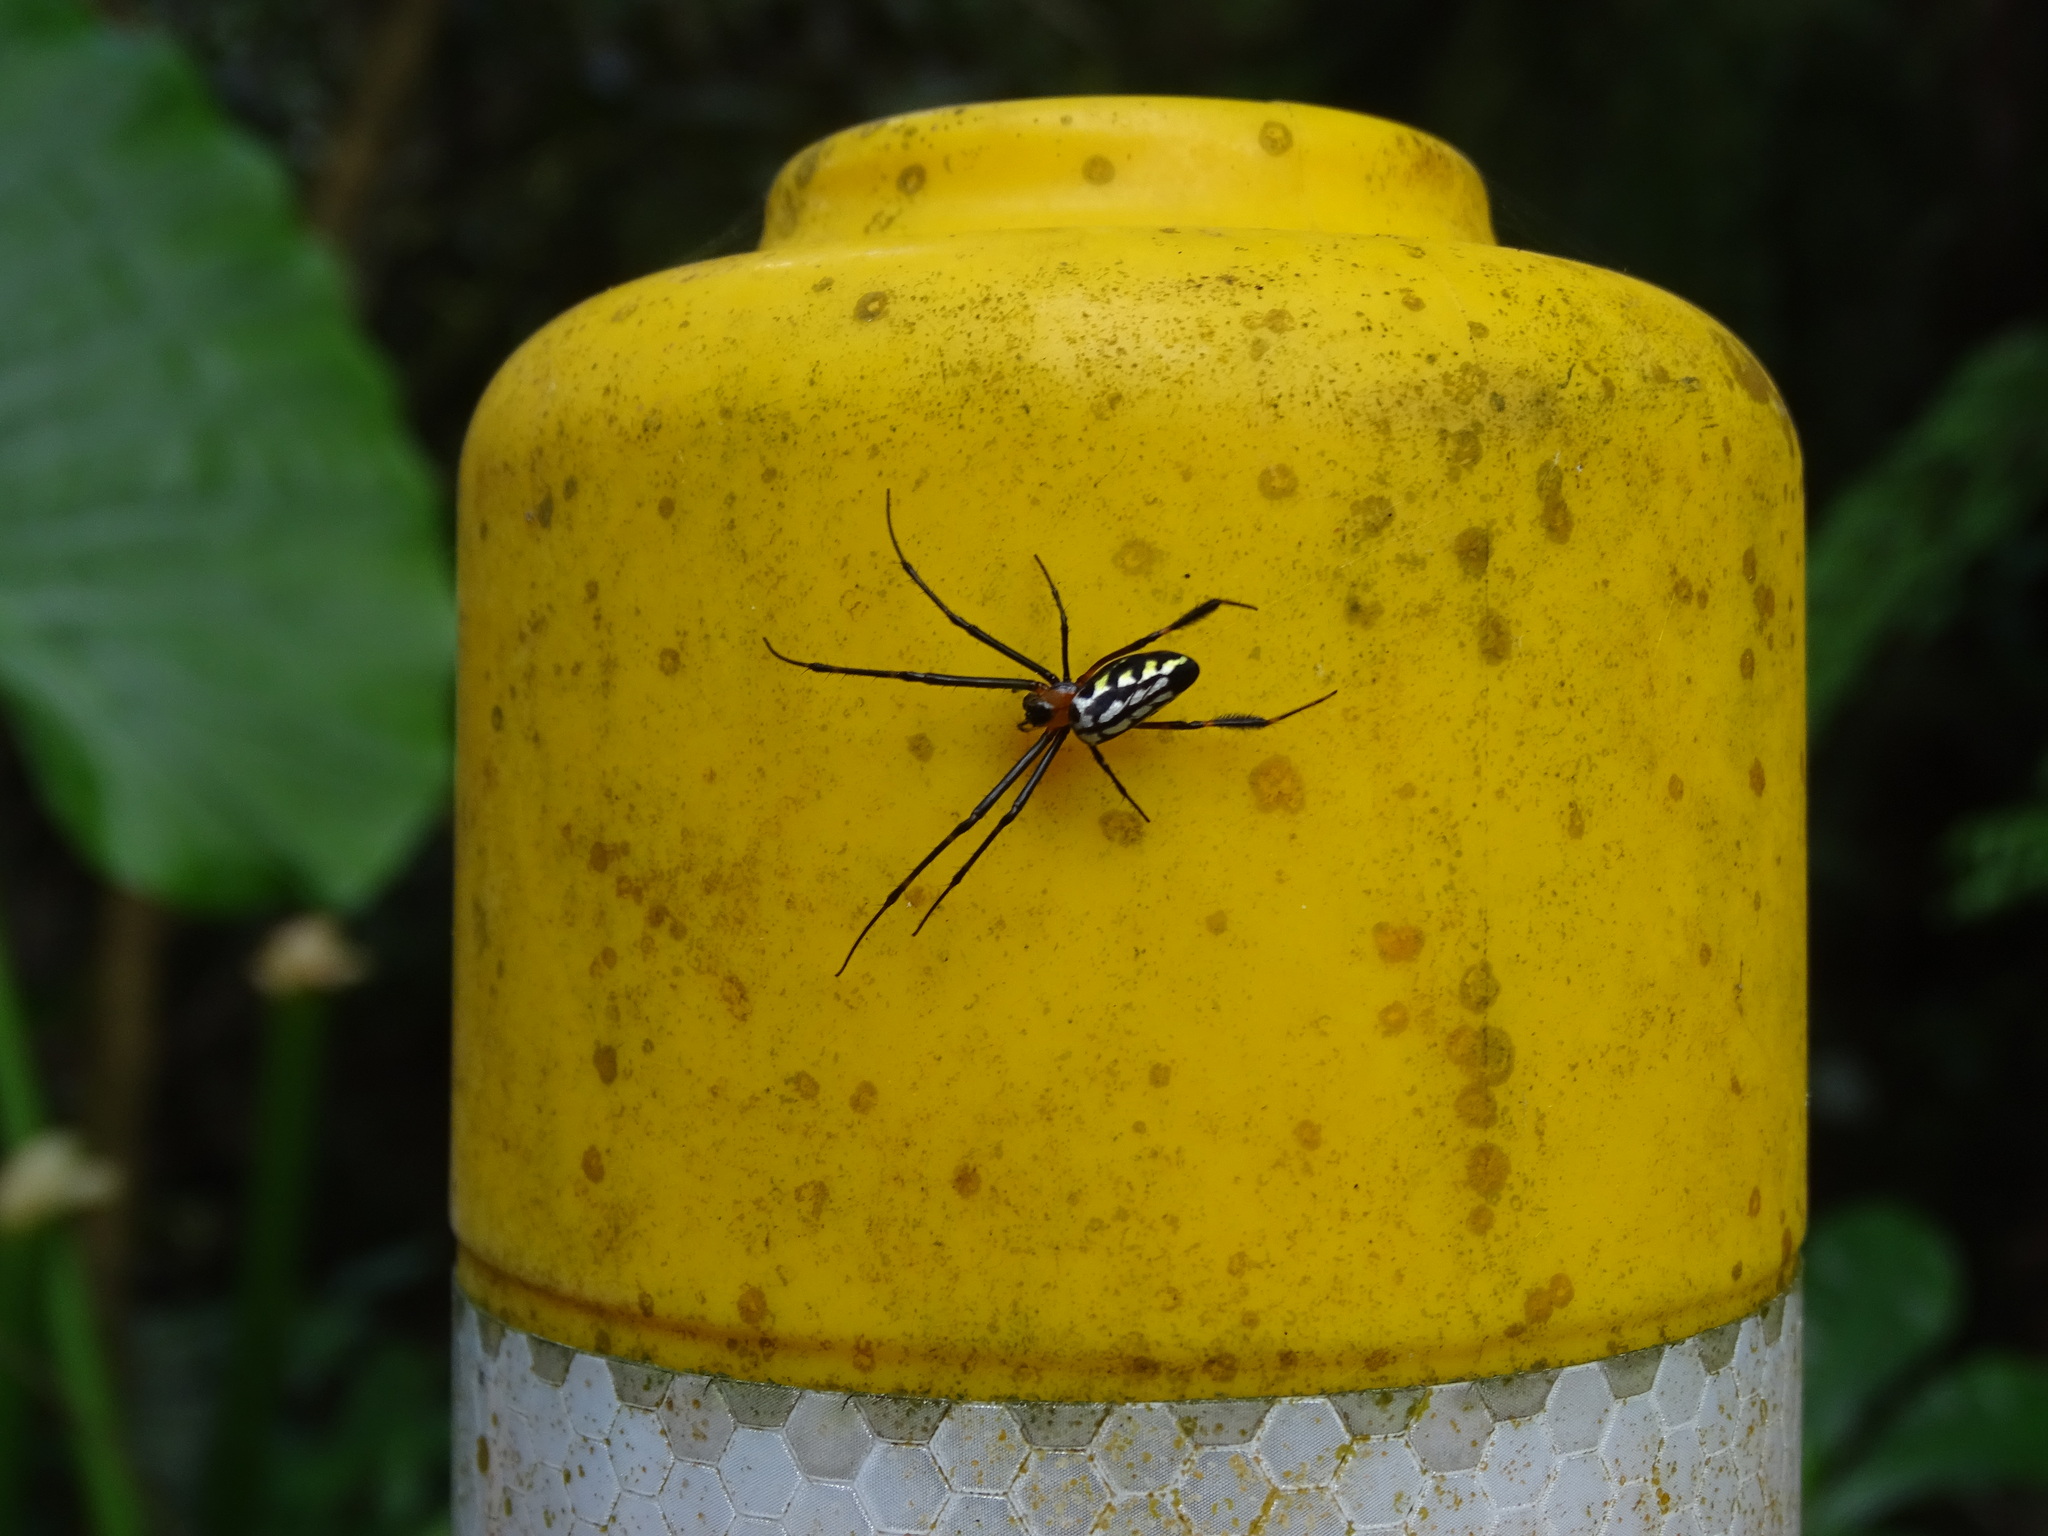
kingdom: Animalia
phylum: Arthropoda
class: Arachnida
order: Araneae
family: Tetragnathidae
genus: Leucauge
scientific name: Leucauge tessellata
